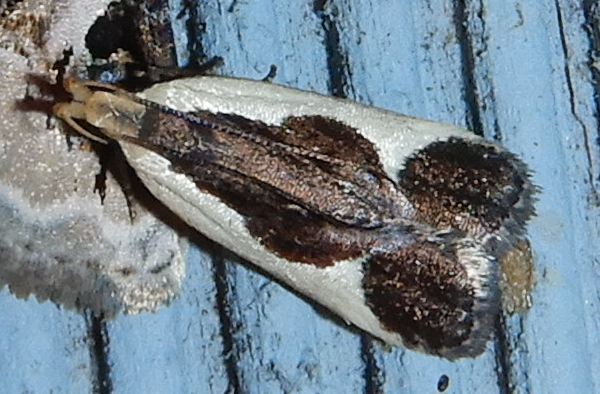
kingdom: Animalia
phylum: Arthropoda
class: Insecta
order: Lepidoptera
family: Gelechiidae
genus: Dichomeris
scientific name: Dichomeris flavocostella
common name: Cream-edged dichomeris moth
